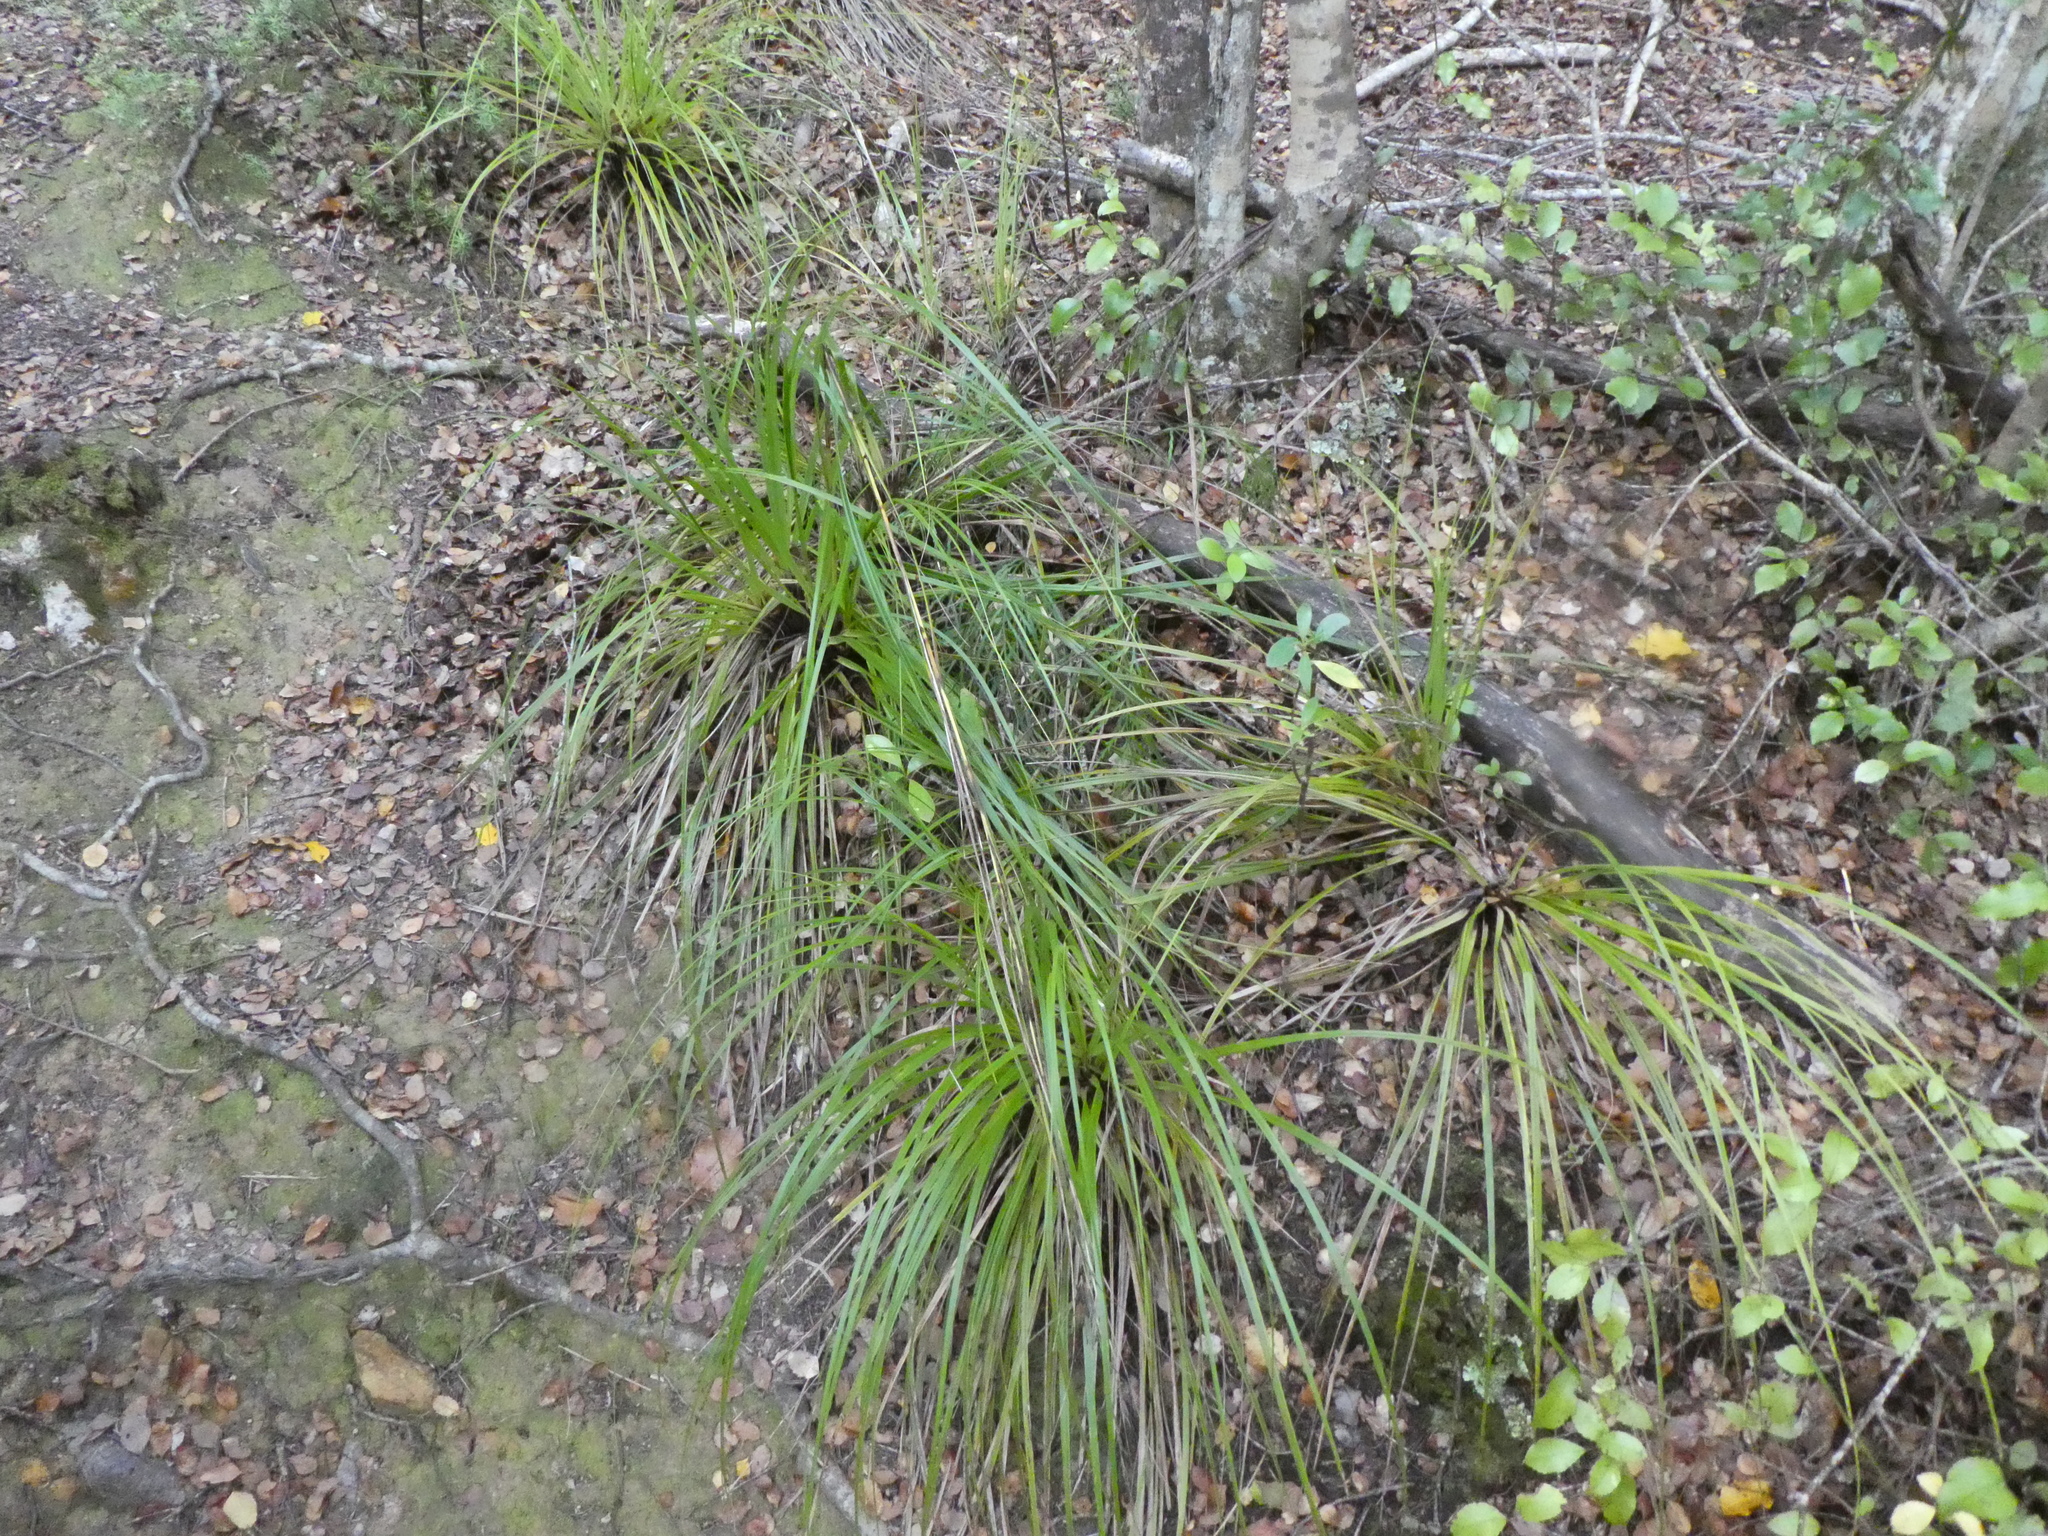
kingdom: Plantae
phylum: Tracheophyta
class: Liliopsida
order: Poales
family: Cyperaceae
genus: Gahnia
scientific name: Gahnia pauciflora
